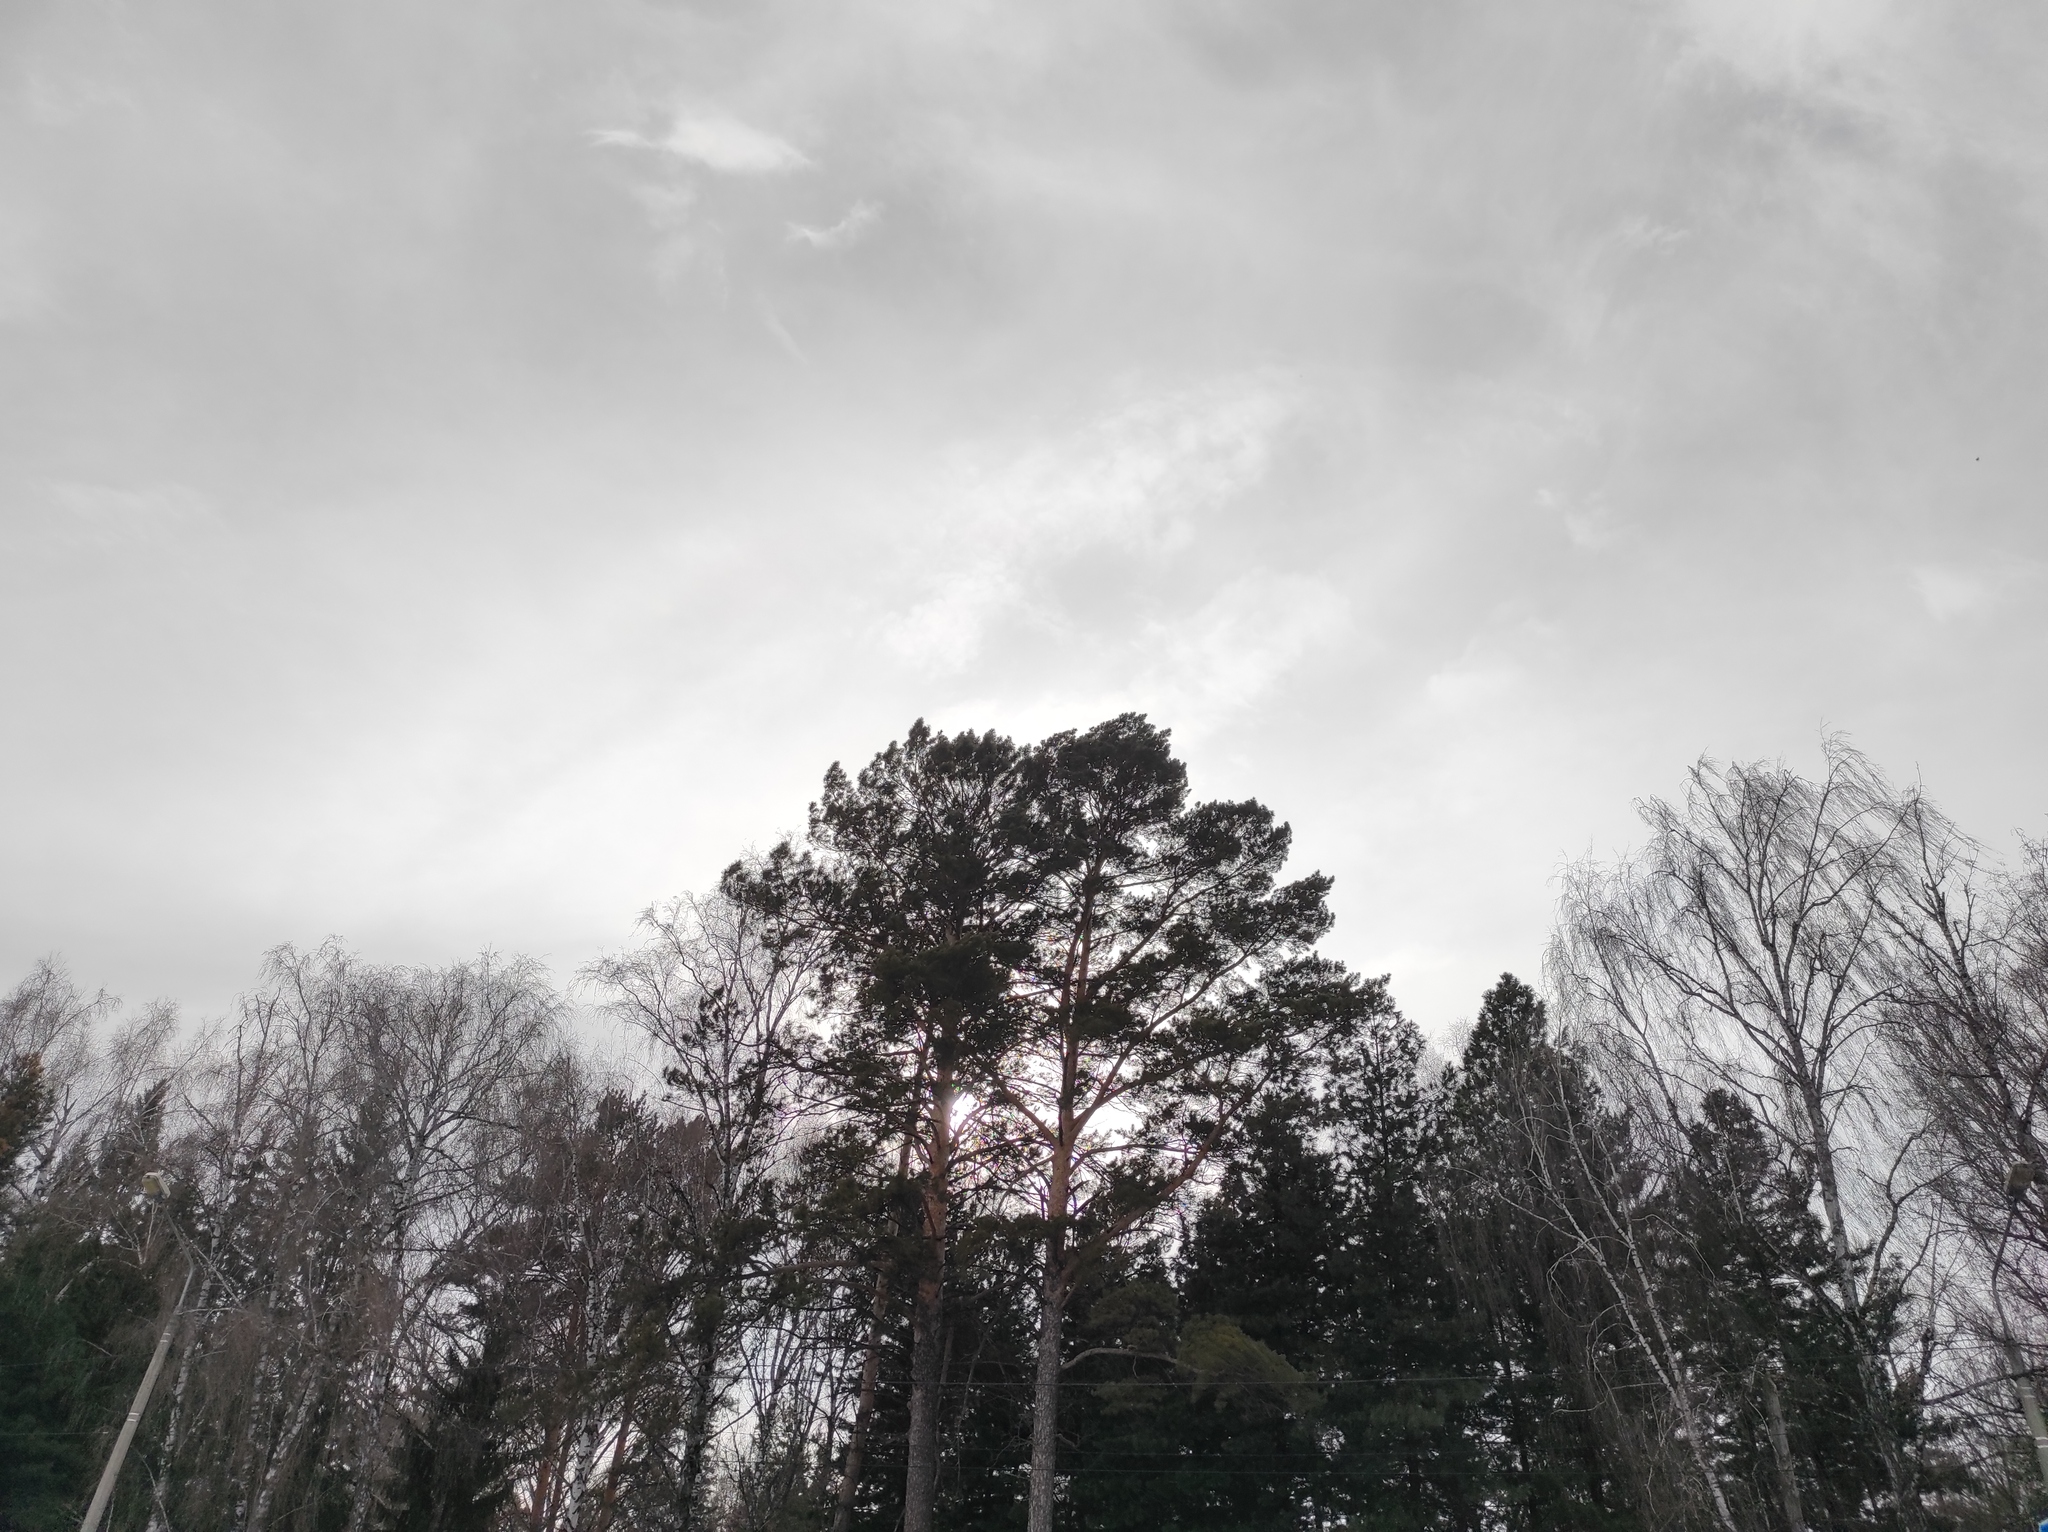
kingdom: Plantae
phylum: Tracheophyta
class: Pinopsida
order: Pinales
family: Pinaceae
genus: Pinus
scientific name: Pinus sylvestris
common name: Scots pine
